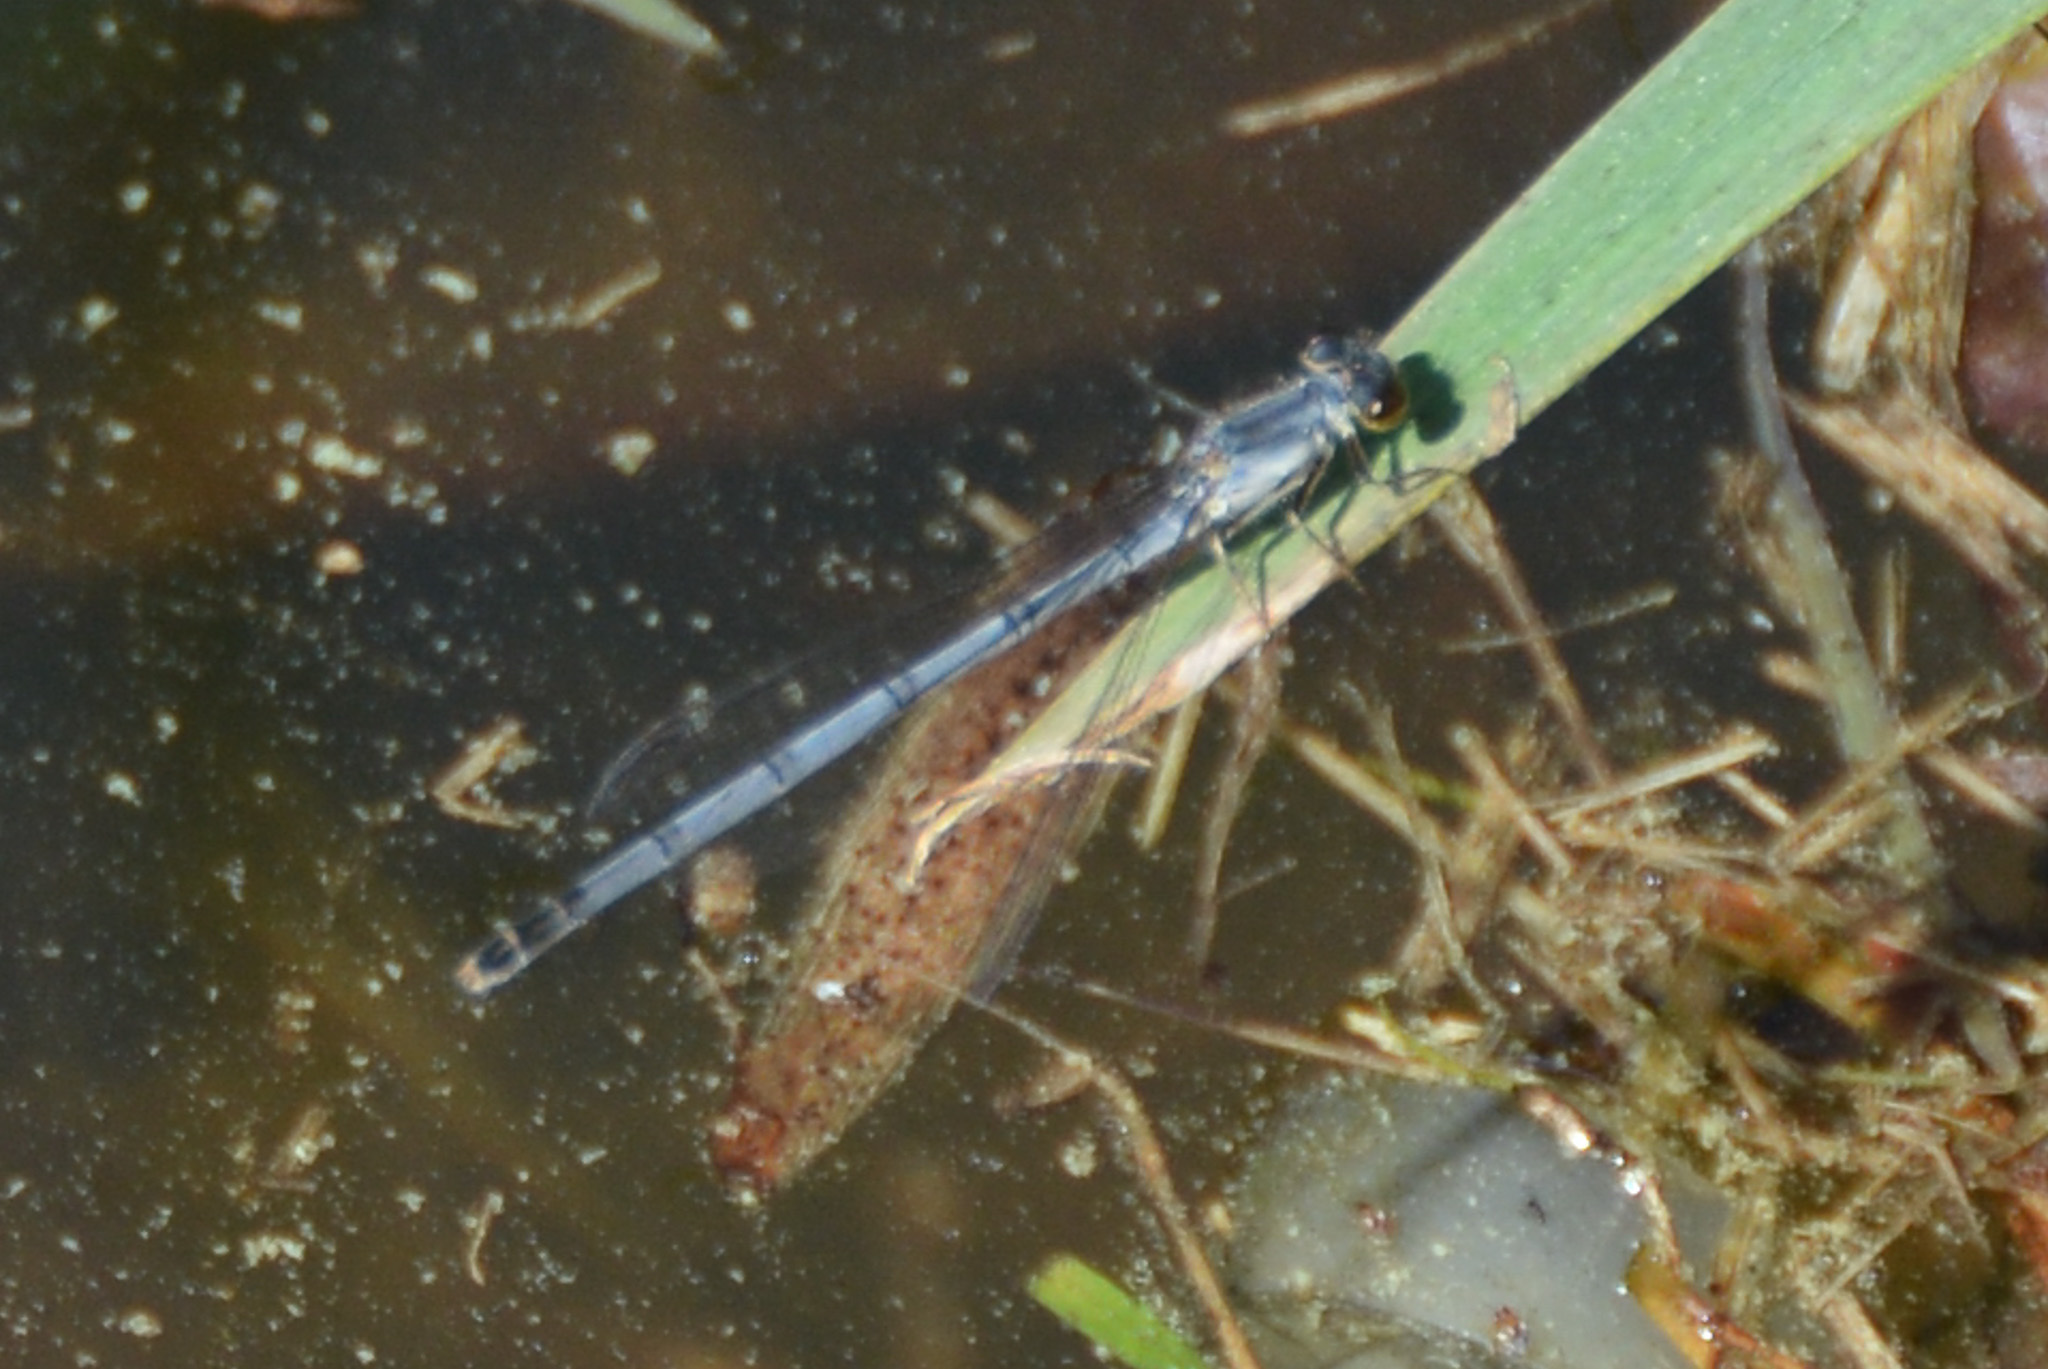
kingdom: Animalia
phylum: Arthropoda
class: Insecta
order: Odonata
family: Coenagrionidae
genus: Ischnura
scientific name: Ischnura posita
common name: Fragile forktail
